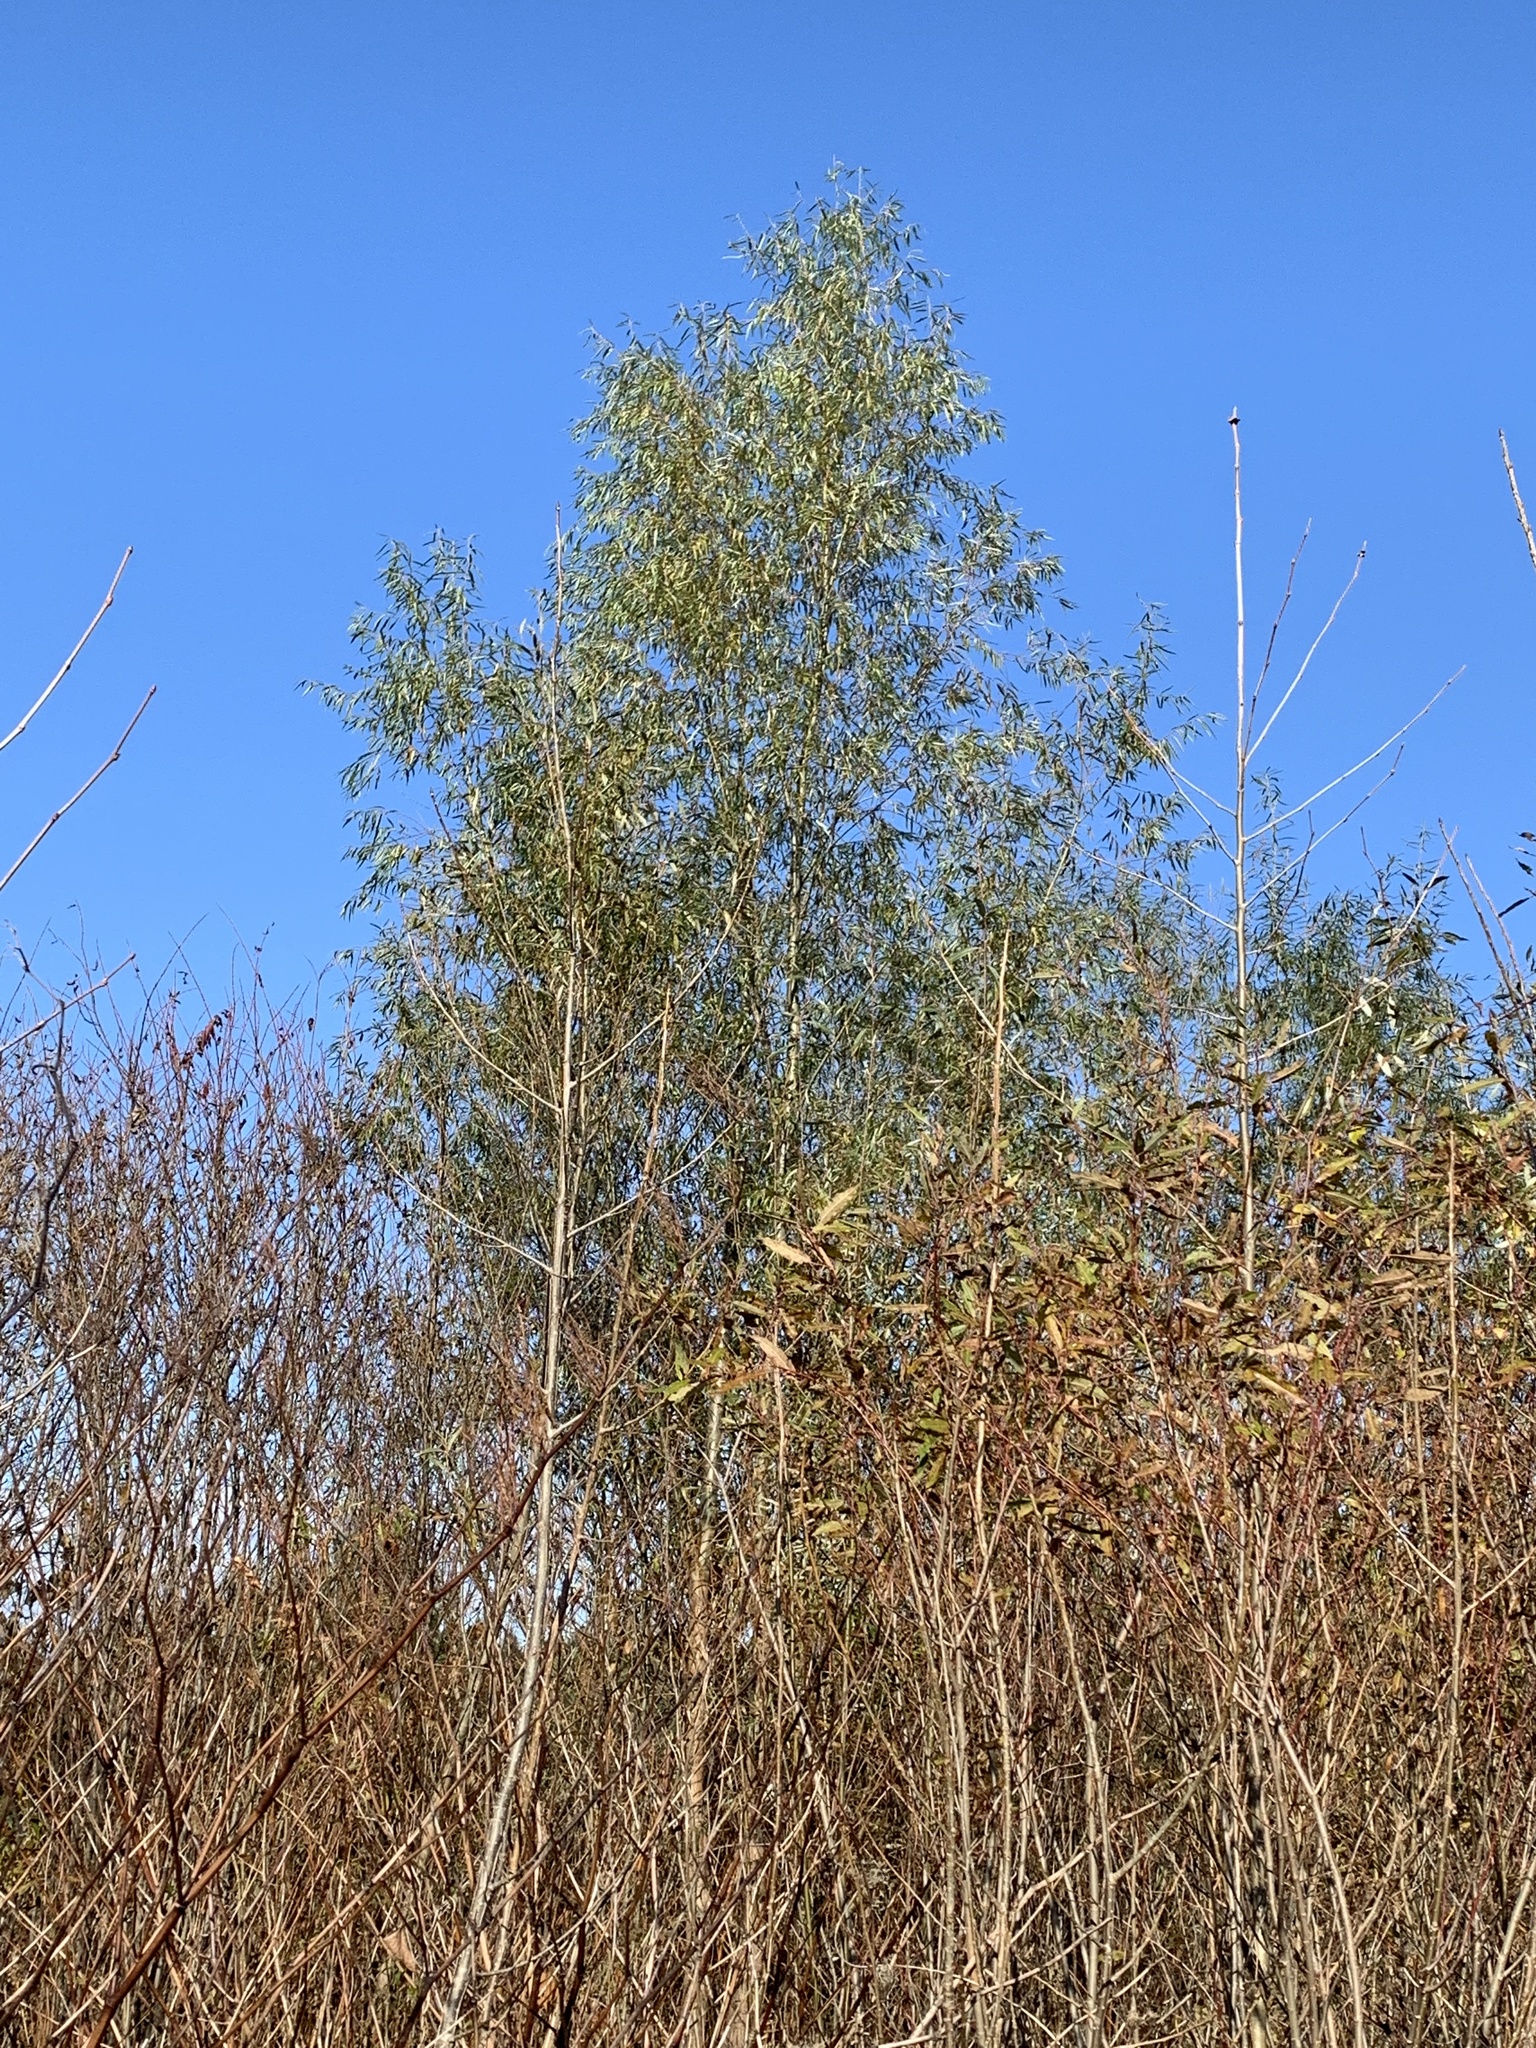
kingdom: Plantae
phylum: Tracheophyta
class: Magnoliopsida
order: Malpighiales
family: Salicaceae
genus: Salix
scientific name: Salix nigra
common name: Black willow
